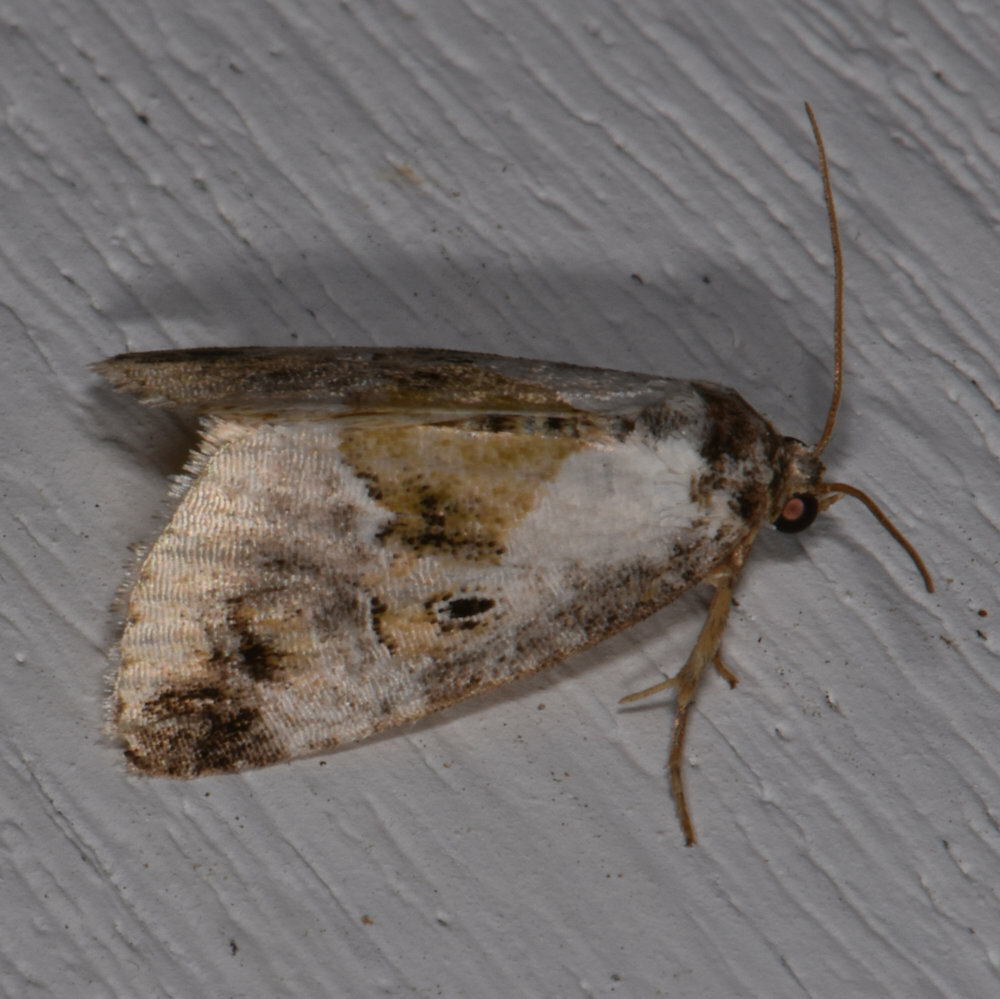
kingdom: Animalia
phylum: Arthropoda
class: Insecta
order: Lepidoptera
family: Noctuidae
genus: Maliattha
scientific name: Maliattha synochitis
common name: Black-dotted glyph
